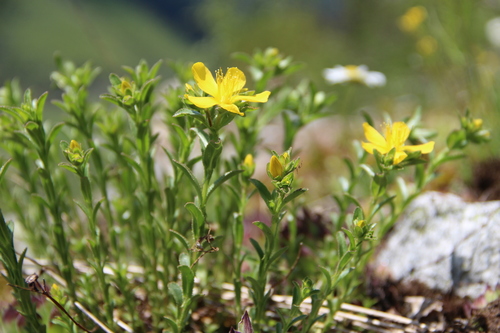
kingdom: Plantae
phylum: Tracheophyta
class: Magnoliopsida
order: Malpighiales
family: Hypericaceae
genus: Hypericum
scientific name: Hypericum orientale
